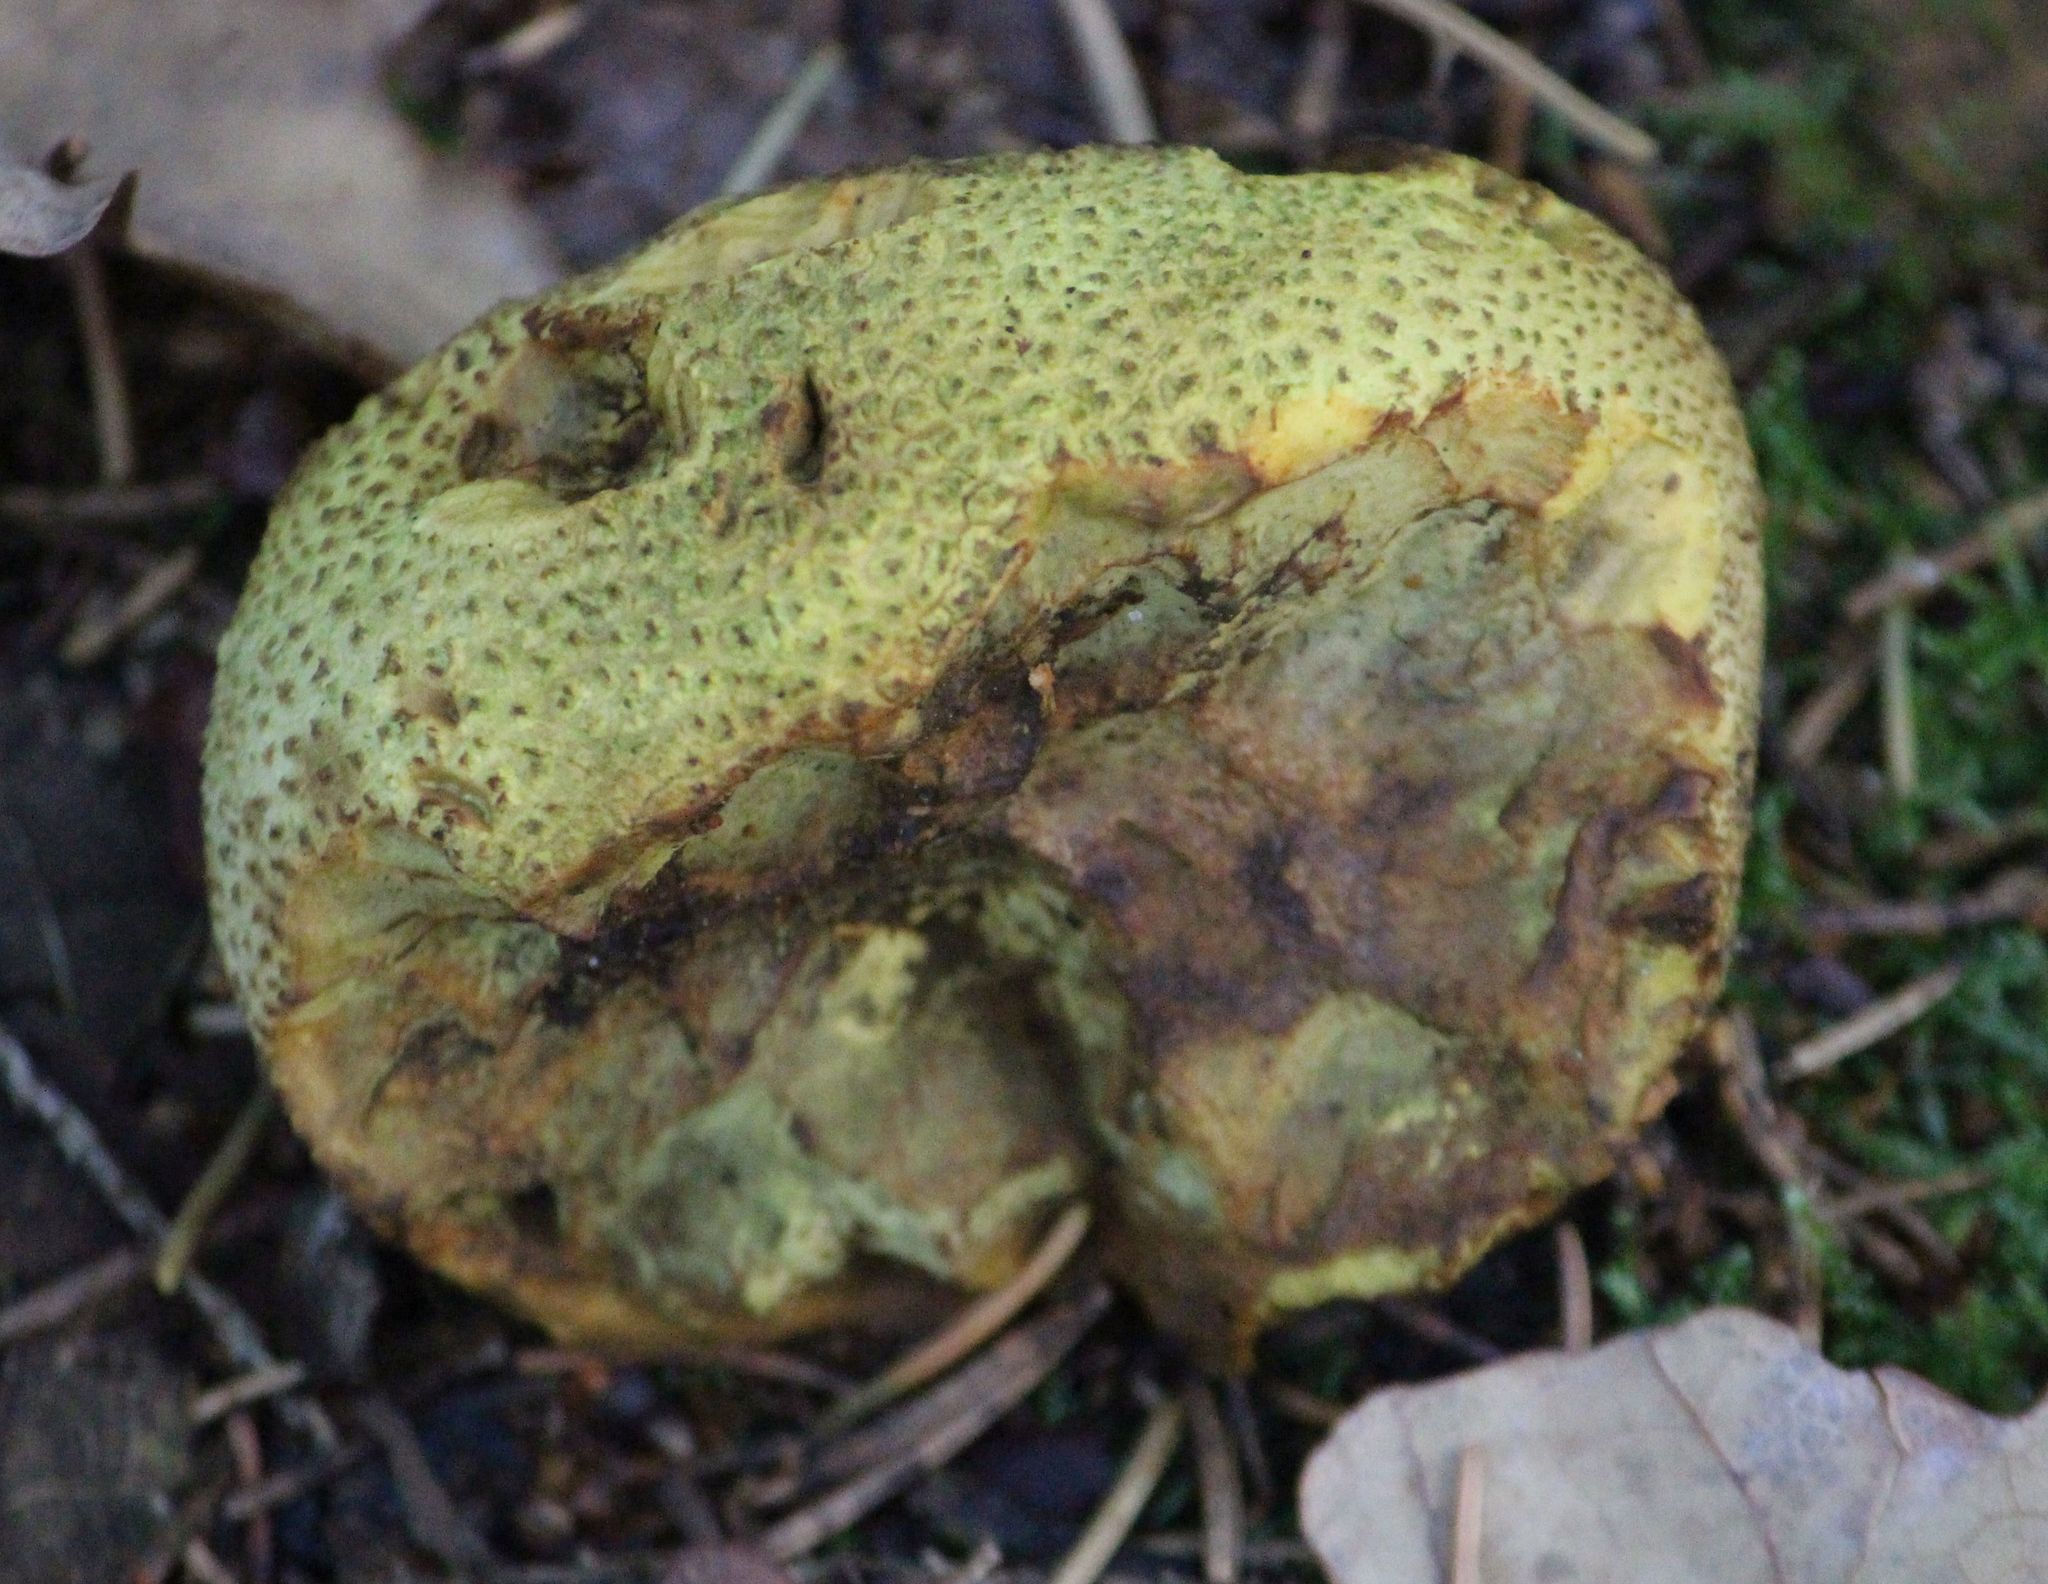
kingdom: Fungi
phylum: Basidiomycota
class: Agaricomycetes
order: Boletales
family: Sclerodermataceae
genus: Scleroderma
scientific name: Scleroderma citrinum
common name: Common earthball
